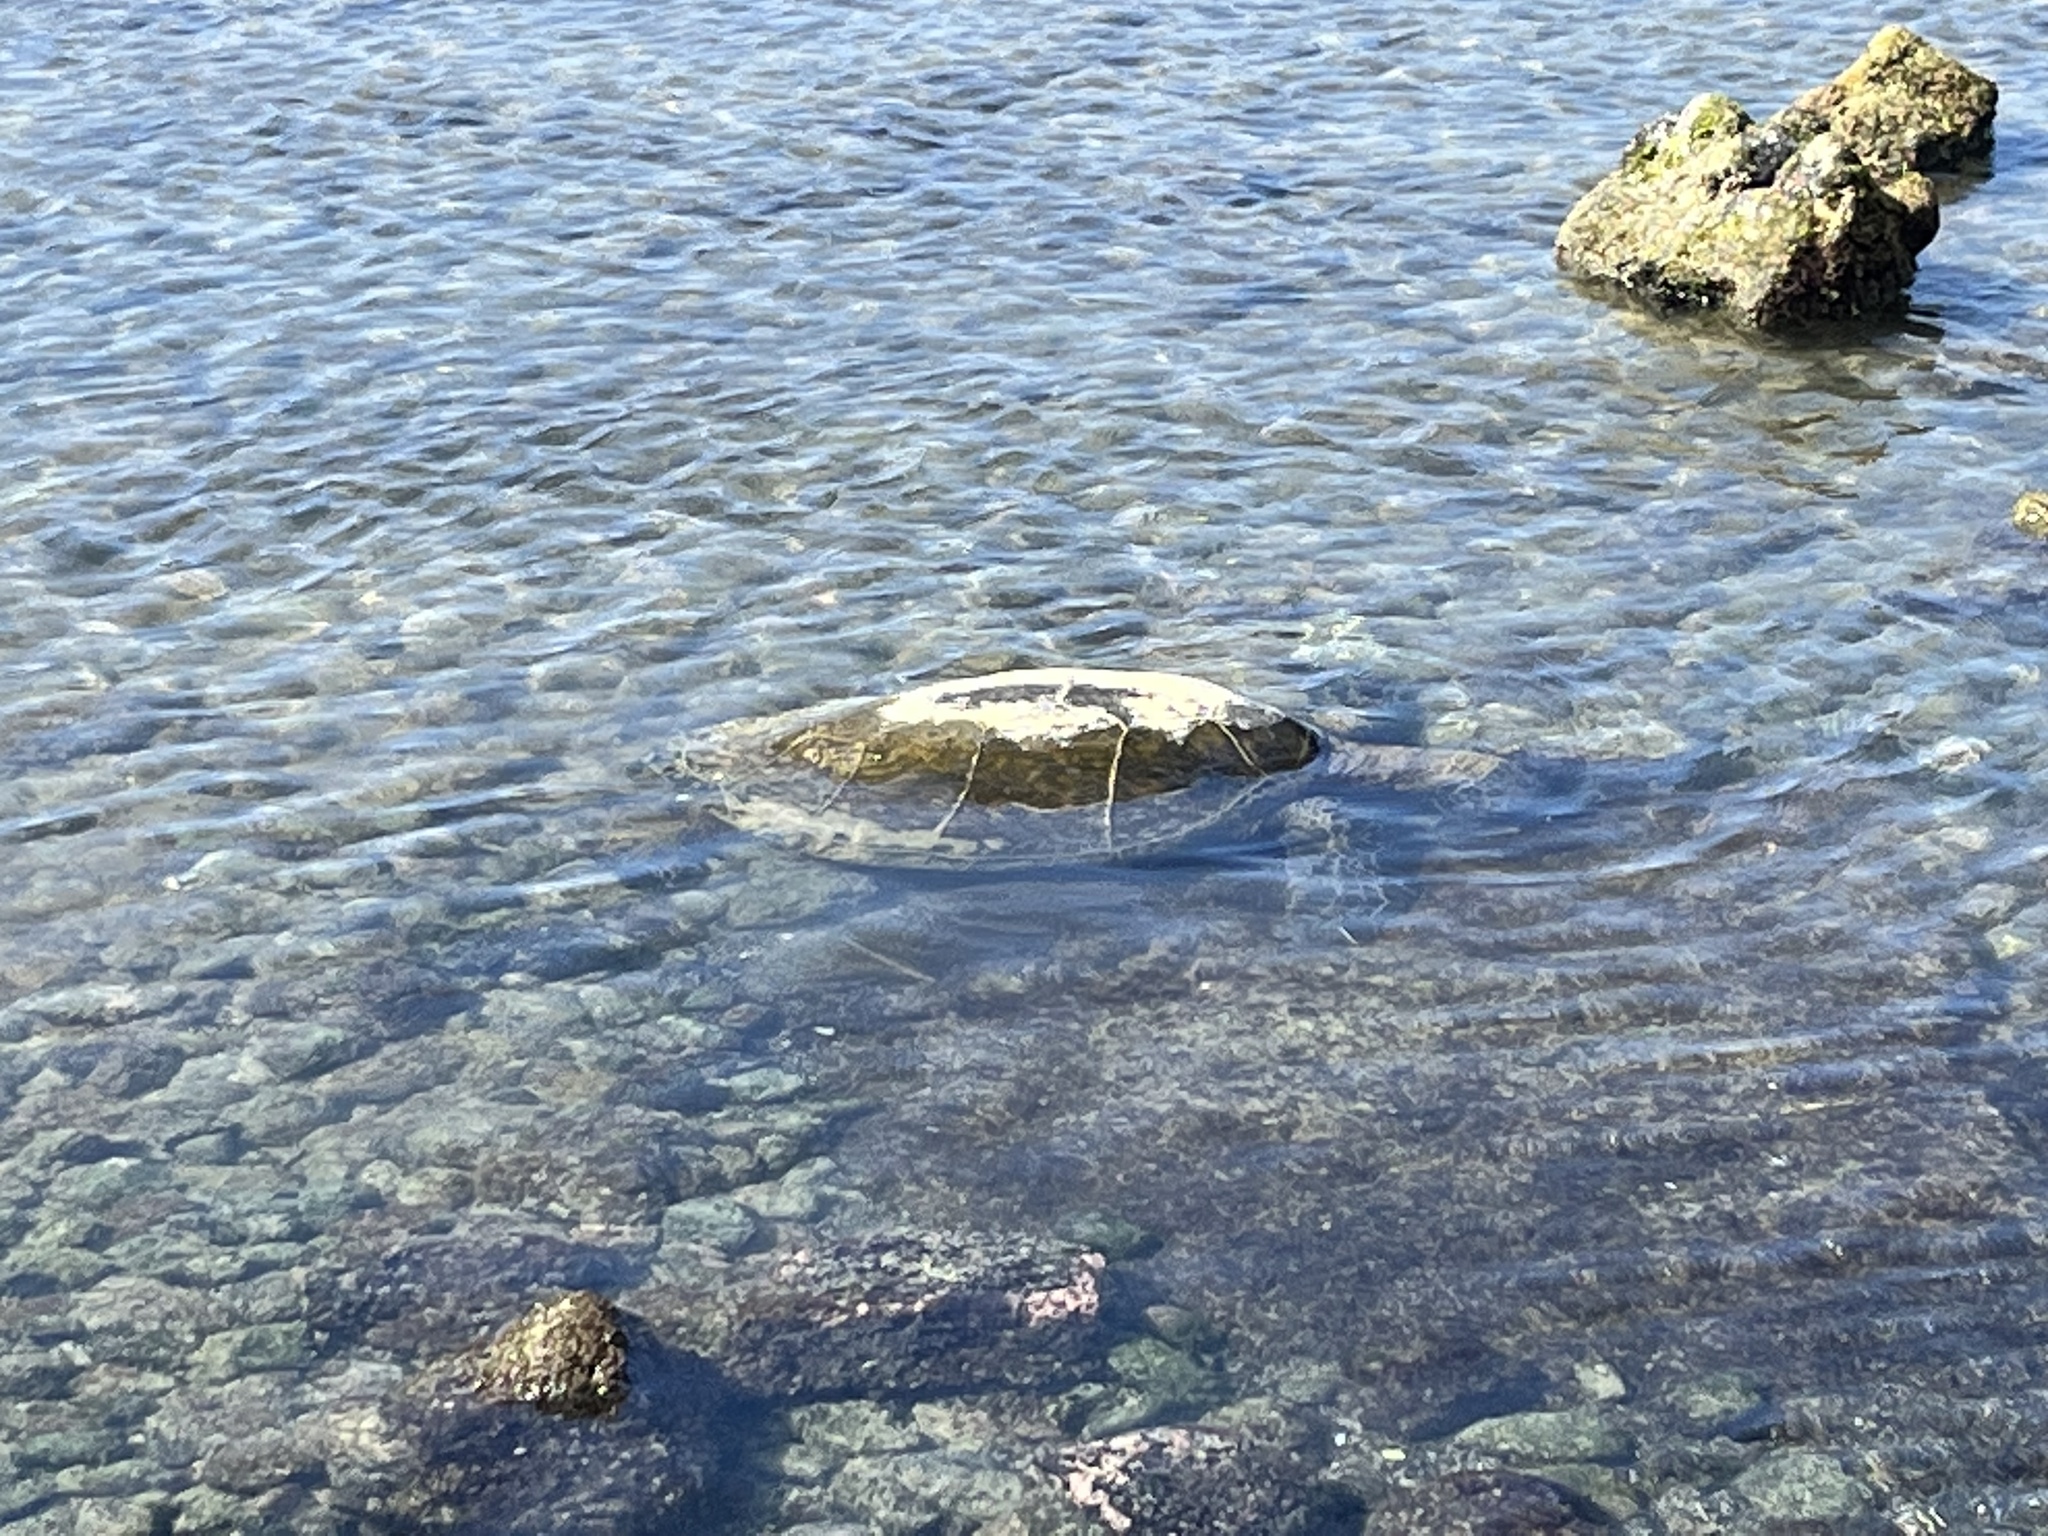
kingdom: Animalia
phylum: Chordata
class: Testudines
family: Cheloniidae
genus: Chelonia
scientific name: Chelonia mydas
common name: Green turtle
